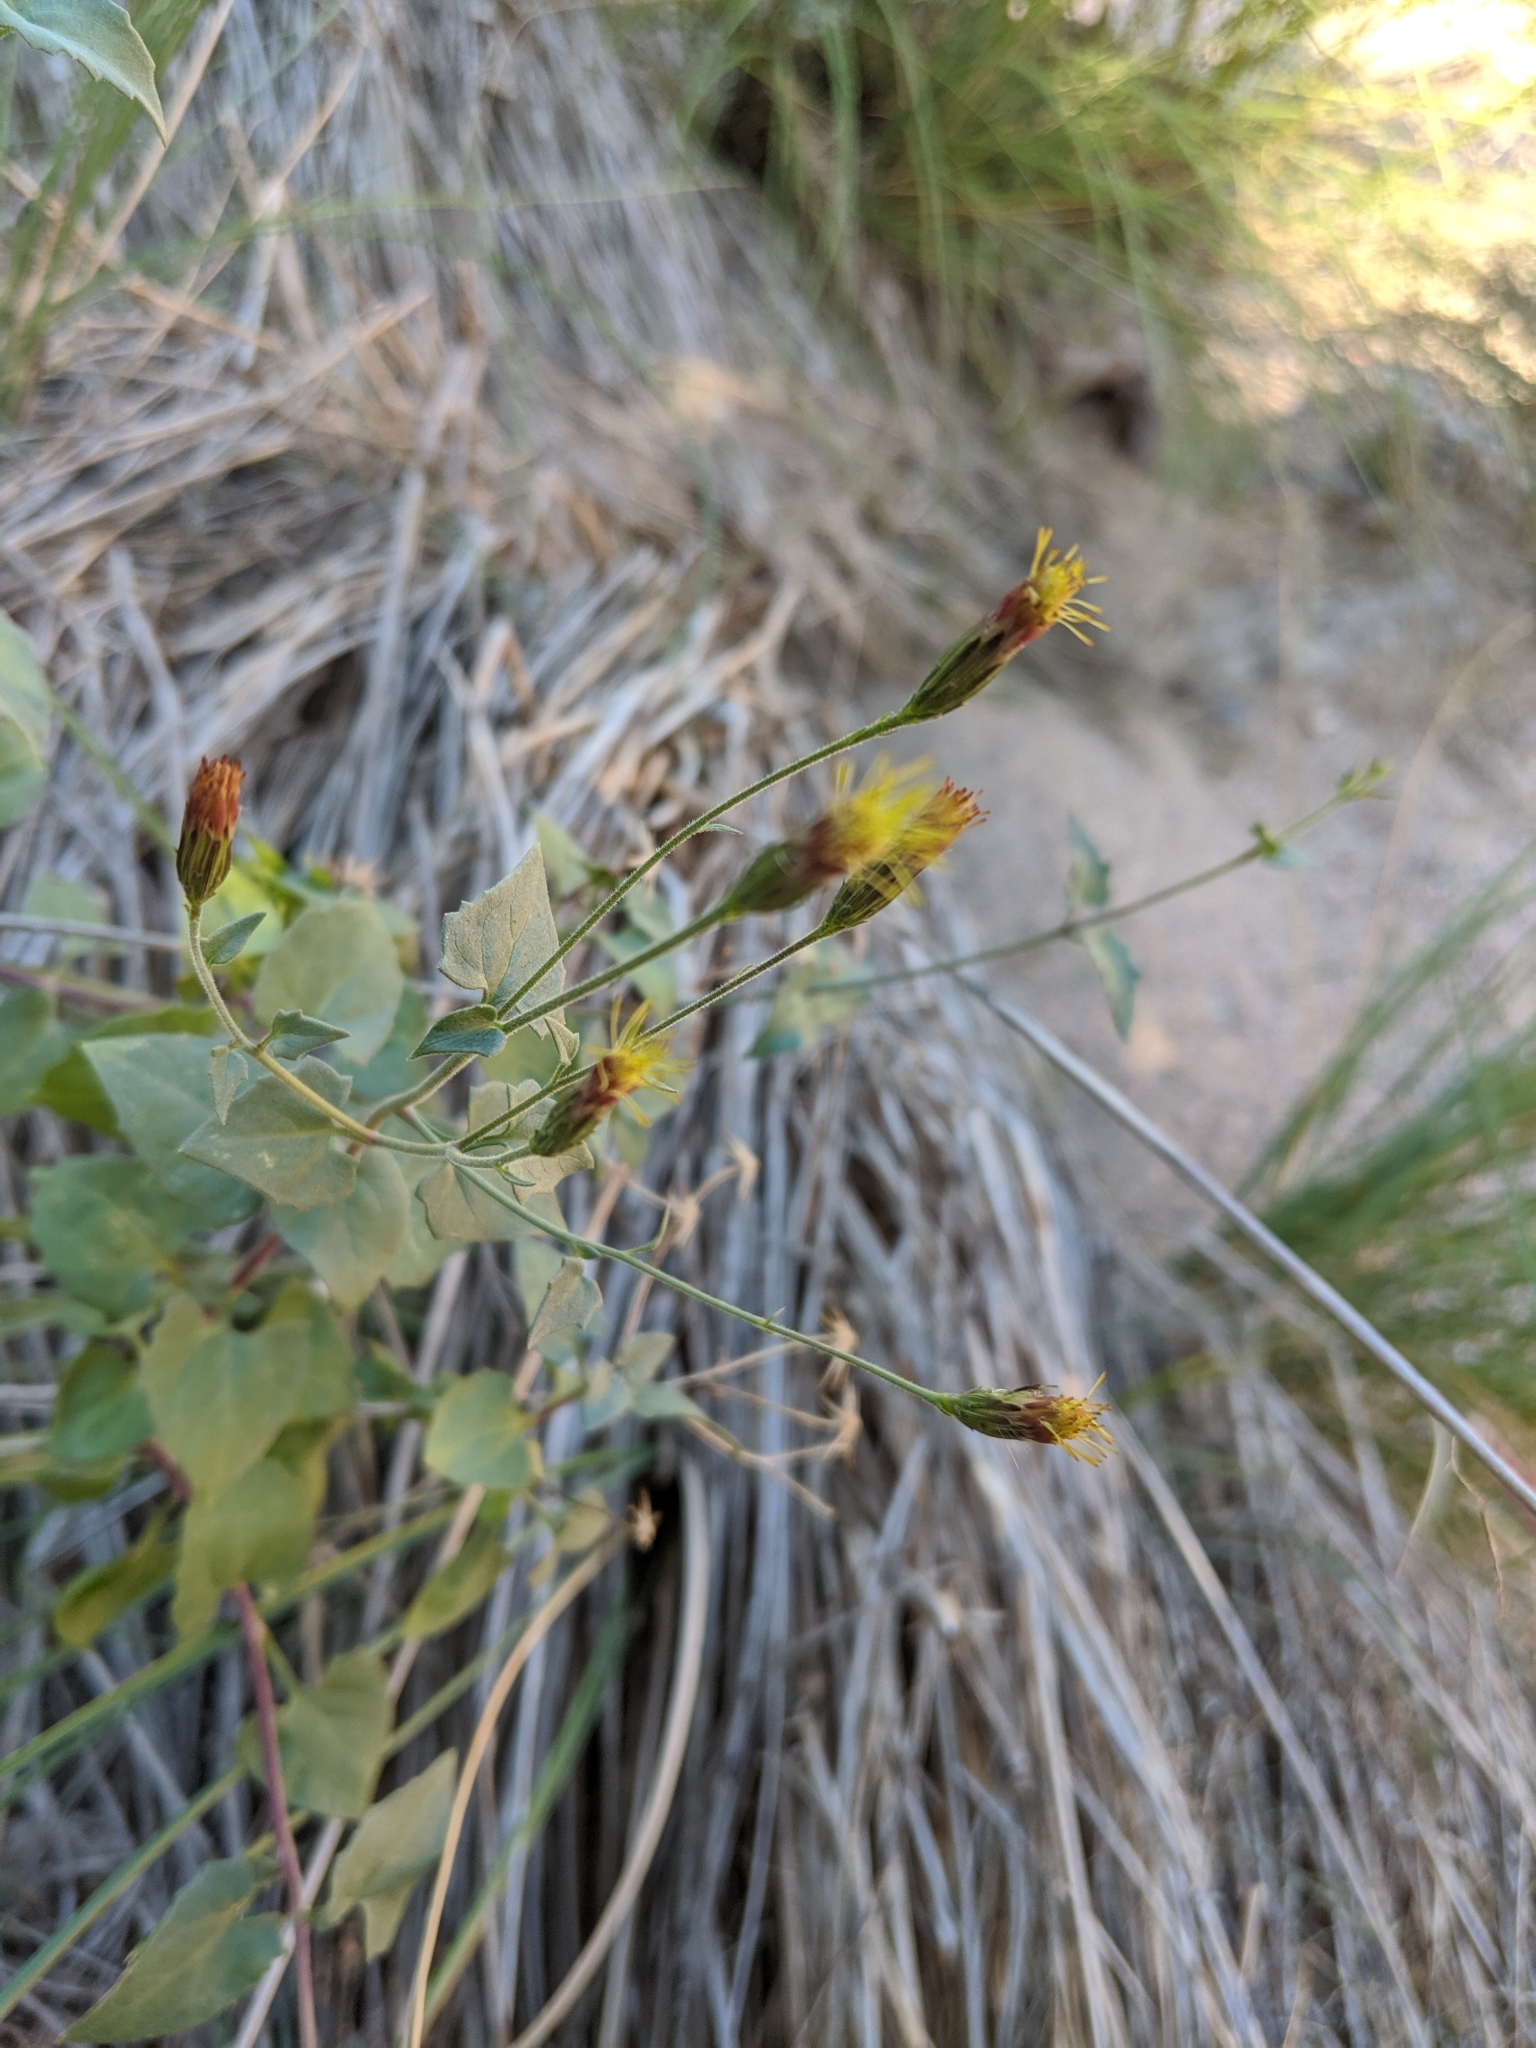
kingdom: Plantae
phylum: Tracheophyta
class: Magnoliopsida
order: Asterales
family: Asteraceae
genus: Brickellia
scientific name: Brickellia coulteri
